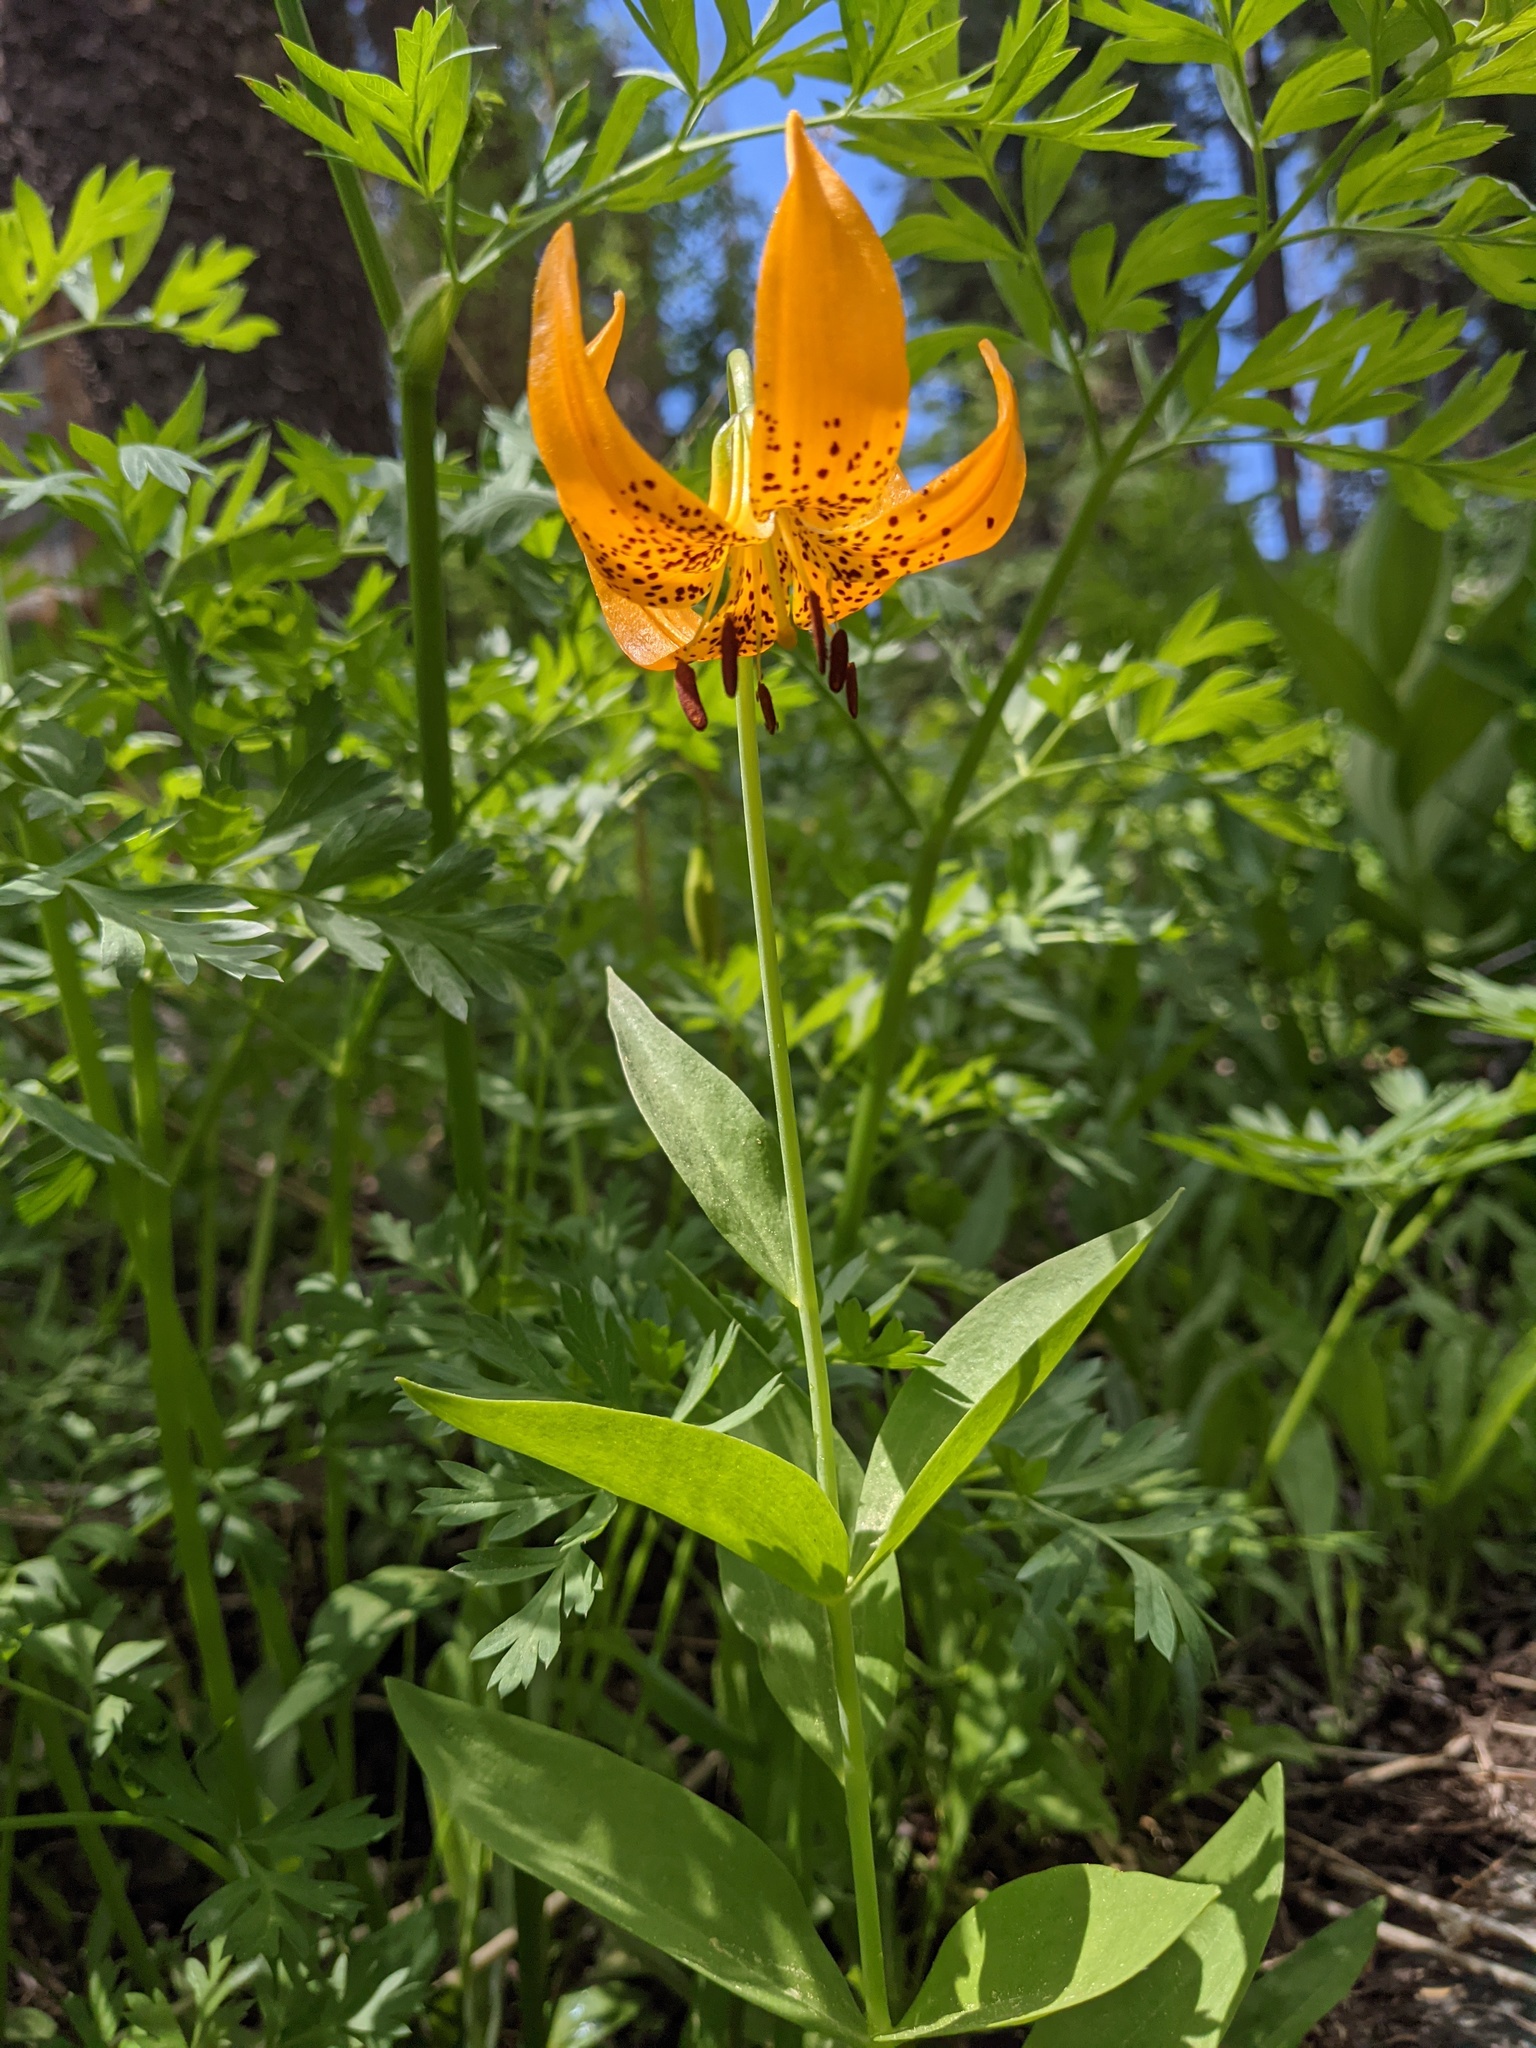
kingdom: Plantae
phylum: Tracheophyta
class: Liliopsida
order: Liliales
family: Liliaceae
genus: Lilium
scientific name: Lilium kelleyanum
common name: Kelley's lily
